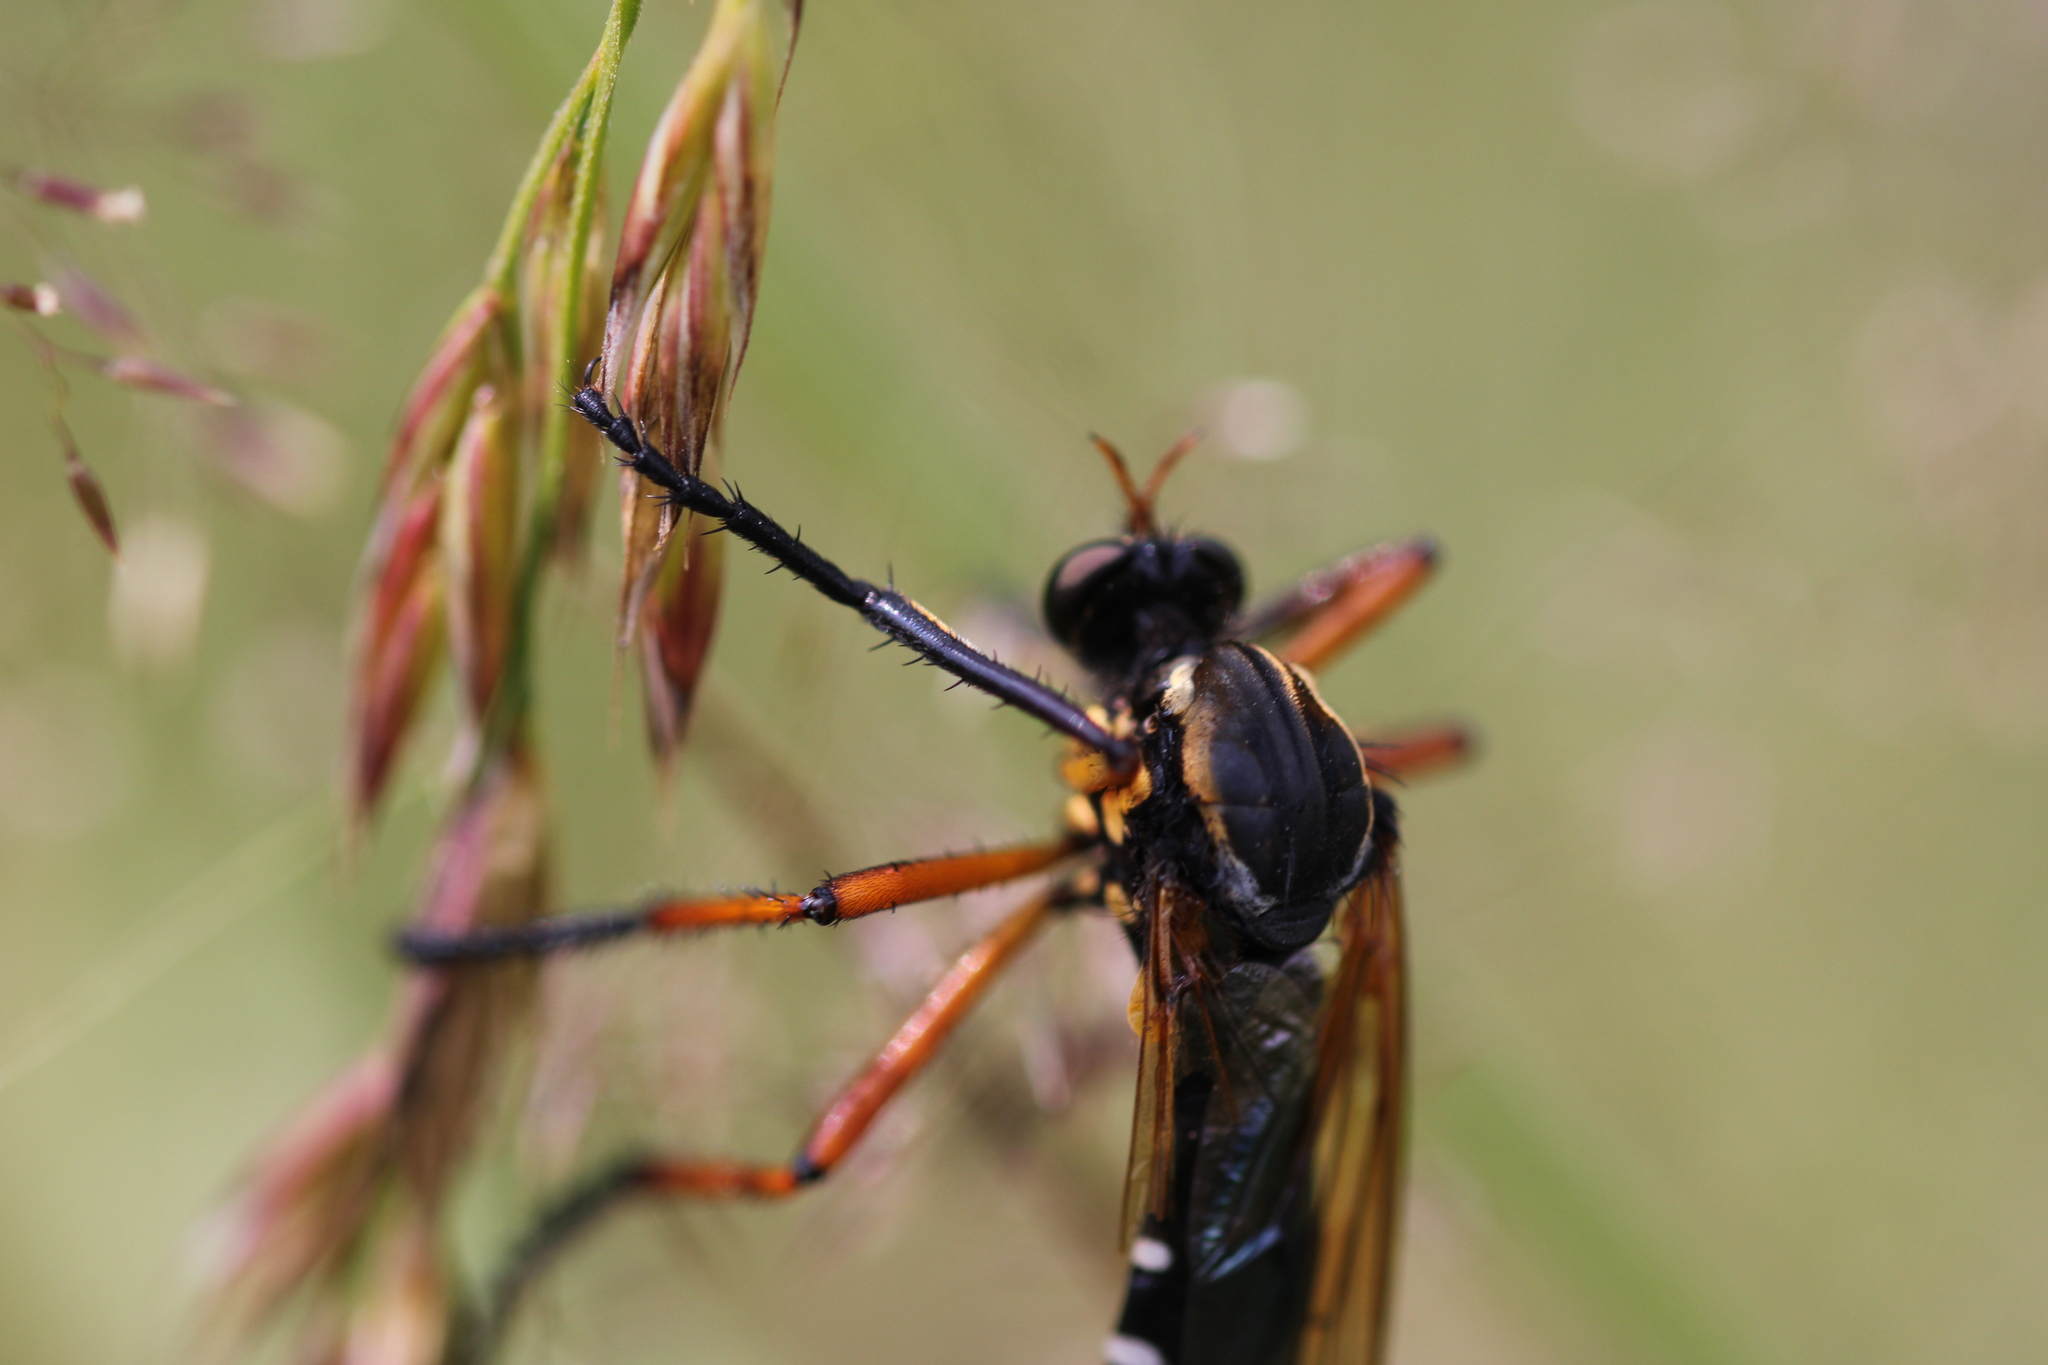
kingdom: Animalia
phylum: Arthropoda
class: Insecta
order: Diptera
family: Asilidae
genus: Molobratia
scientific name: Molobratia teutona
